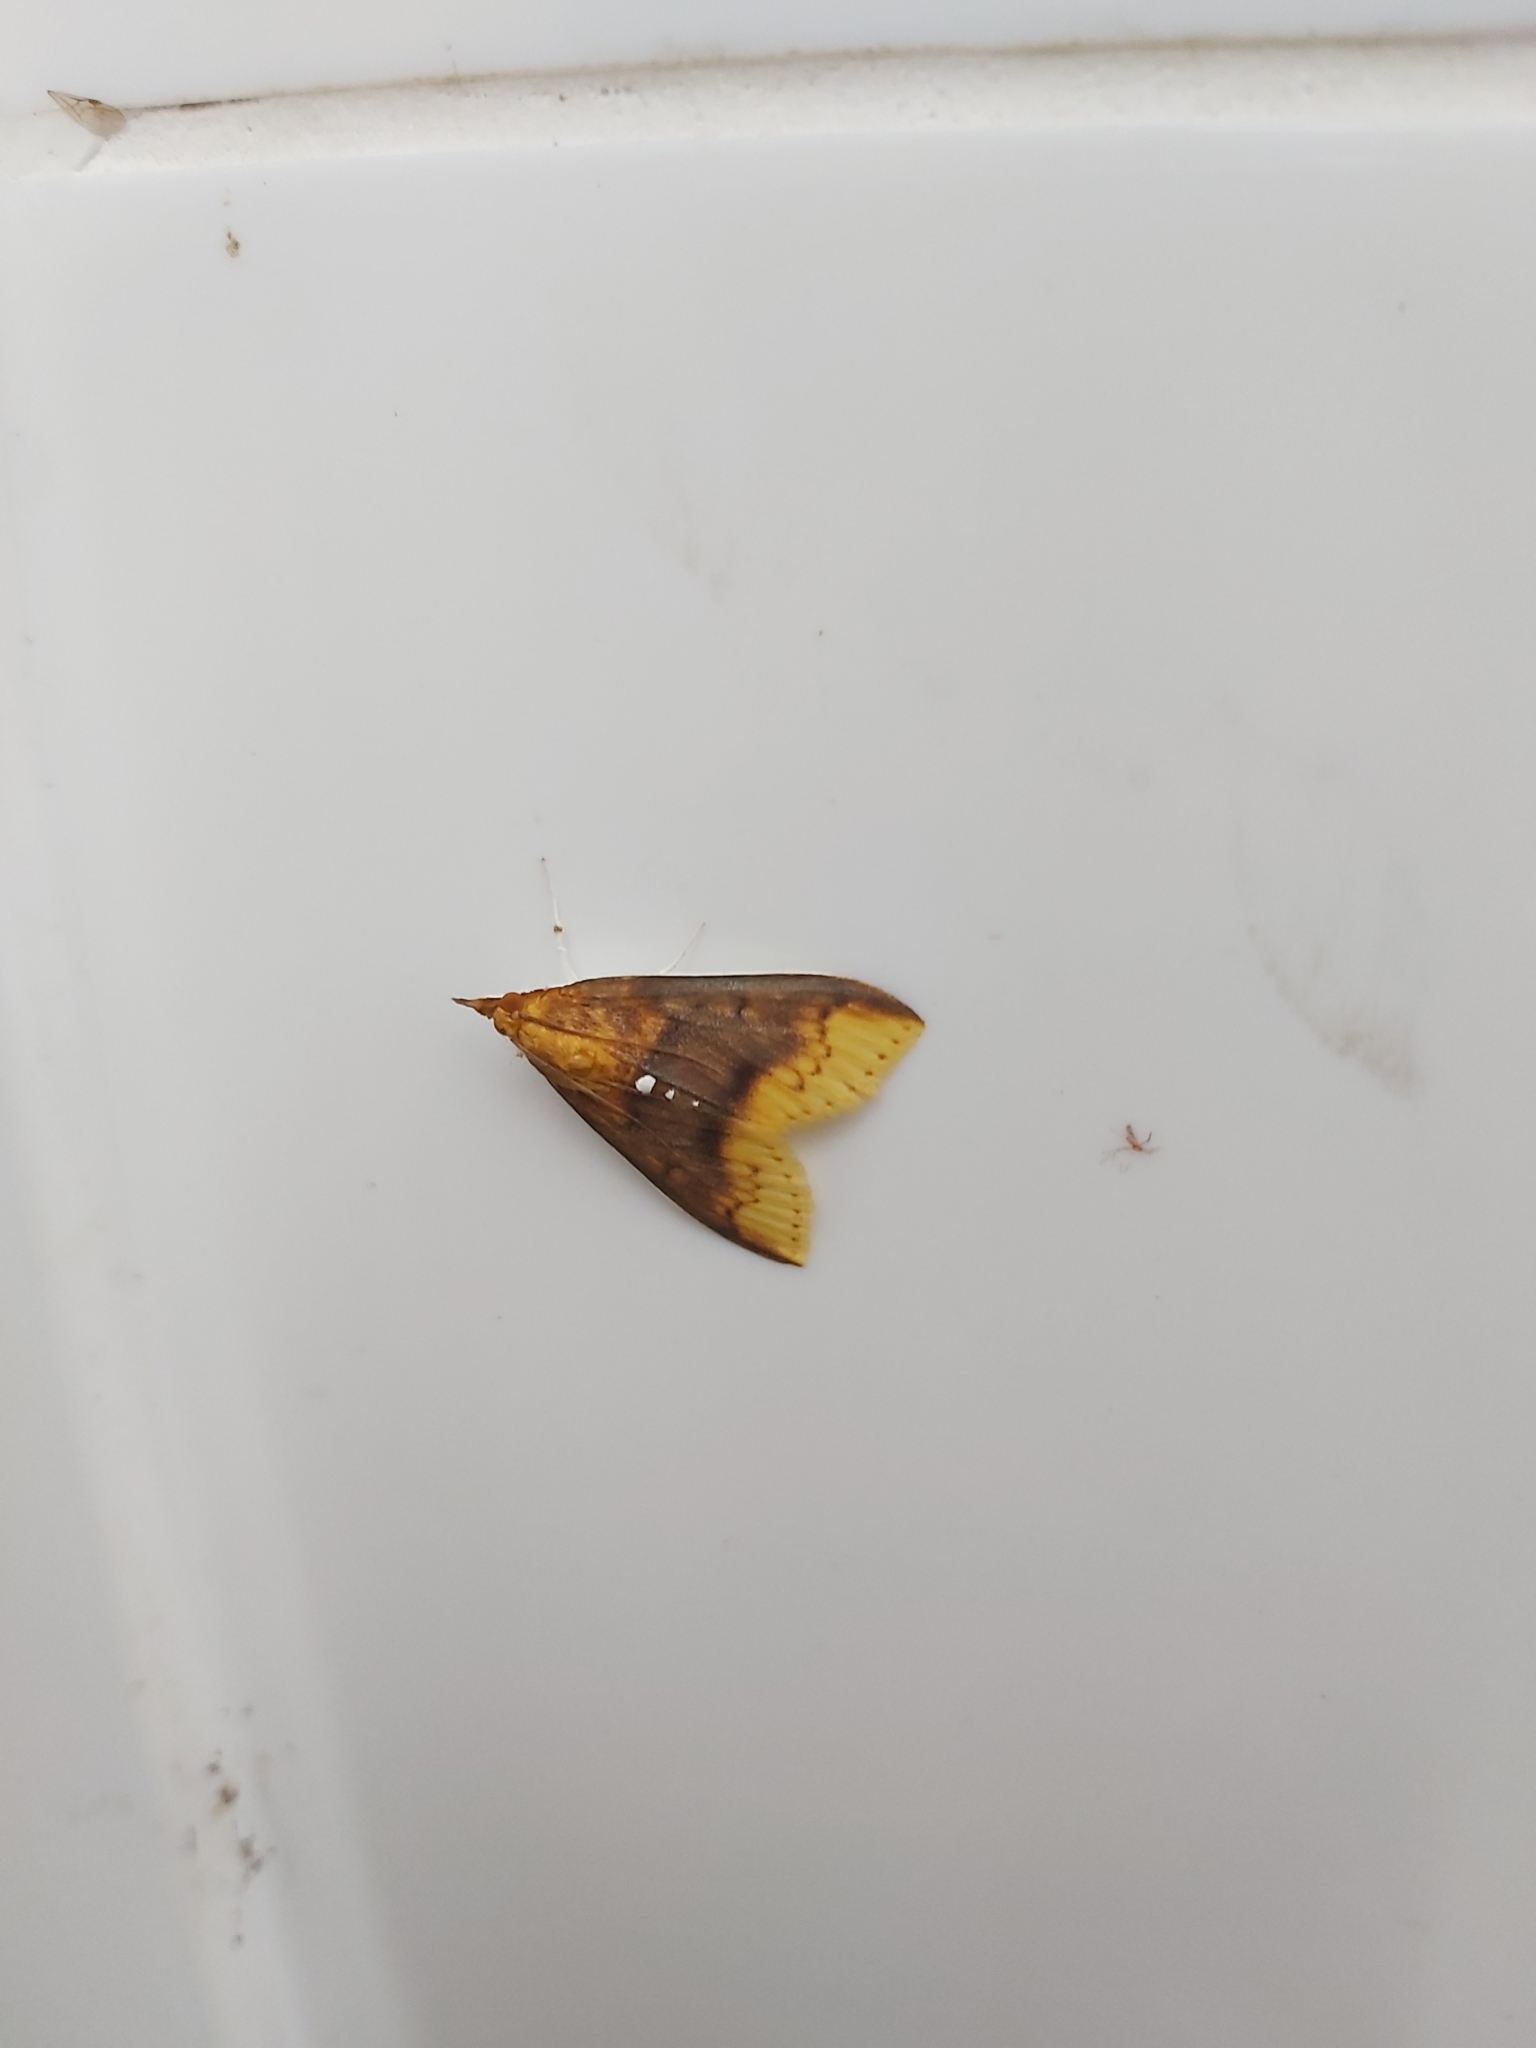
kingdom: Animalia
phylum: Arthropoda
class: Insecta
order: Lepidoptera
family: Crambidae
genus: Lipararchis
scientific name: Lipararchis tranquillalis
